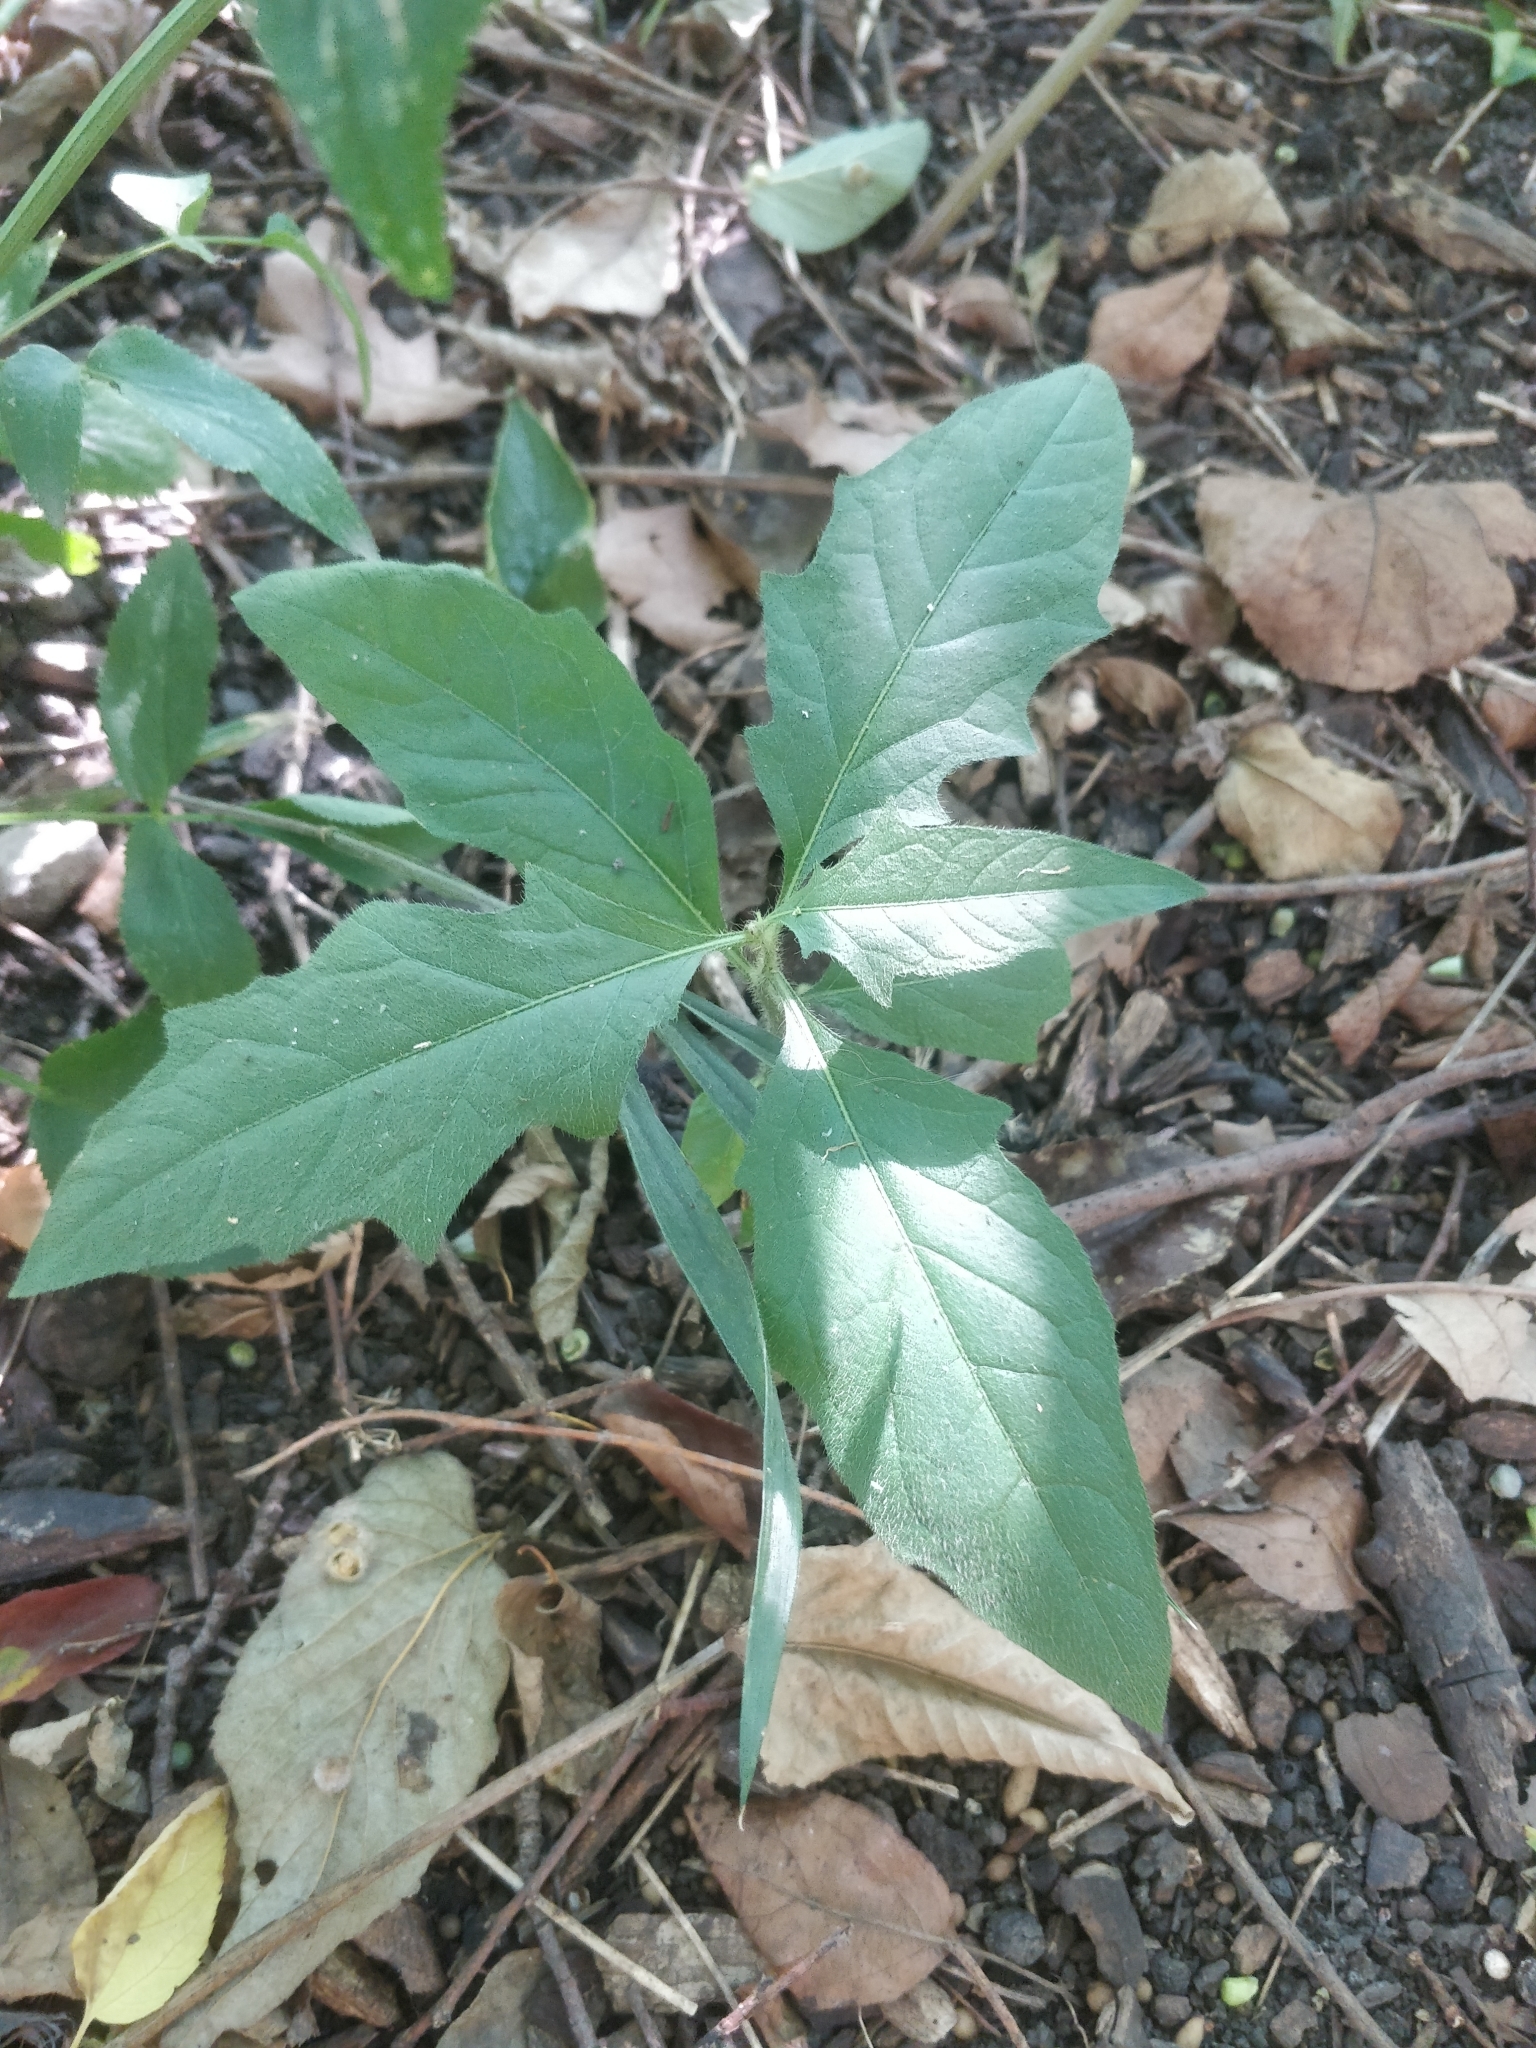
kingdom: Plantae
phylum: Tracheophyta
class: Magnoliopsida
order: Solanales
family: Solanaceae
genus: Solanum
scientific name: Solanum carolinense
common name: Horse-nettle
